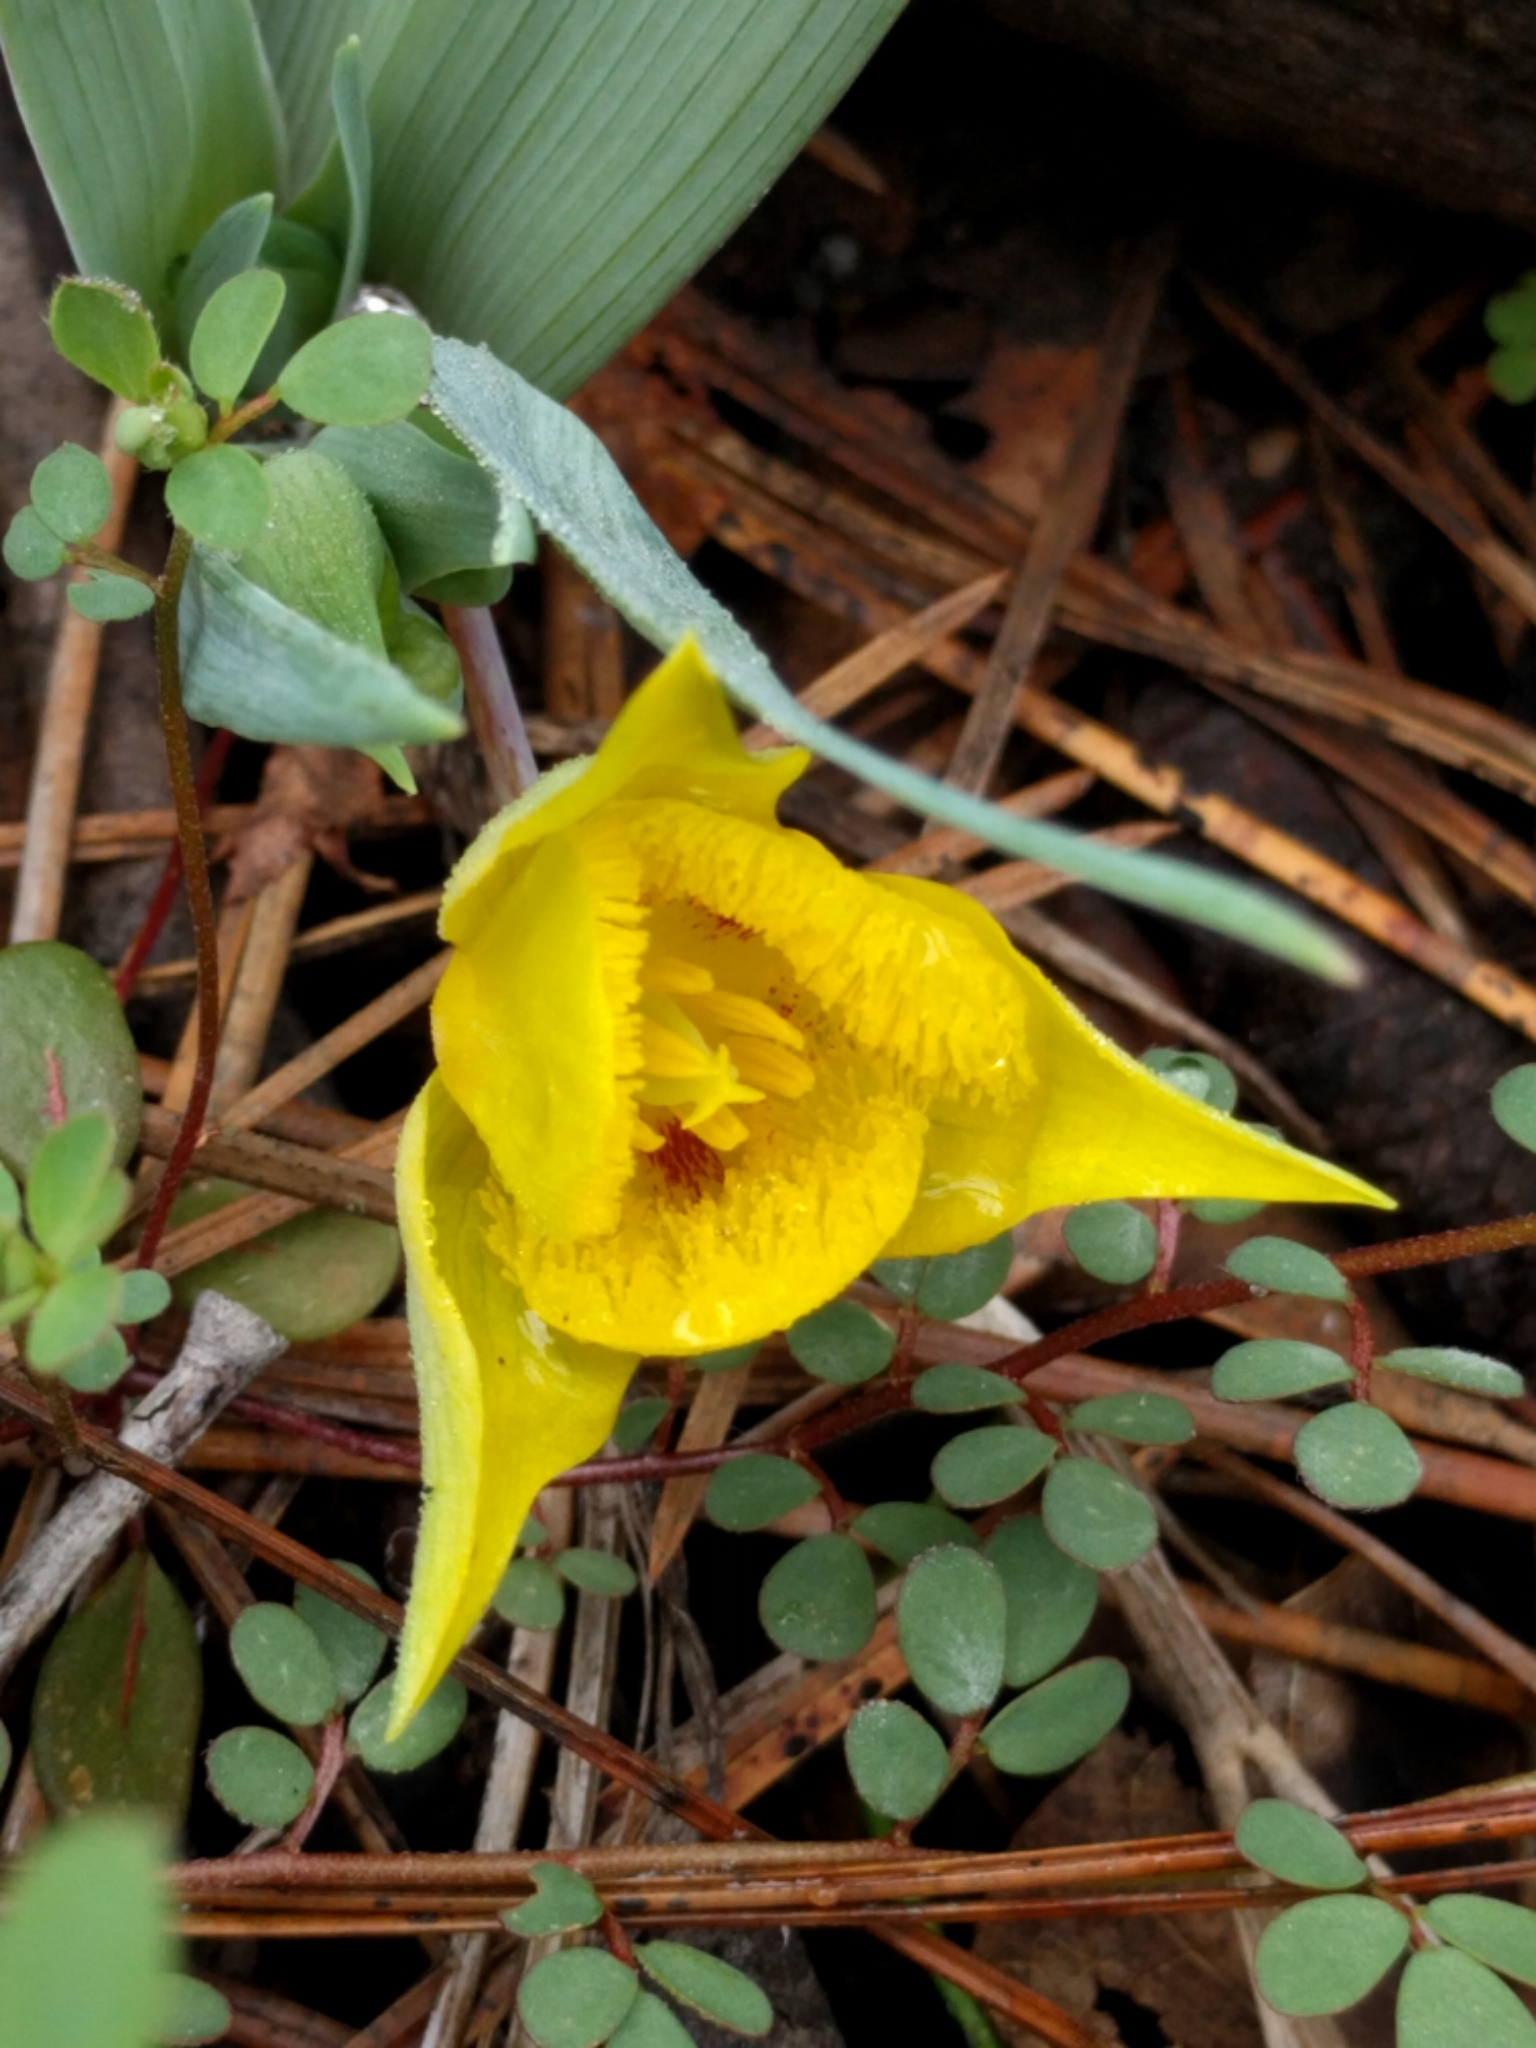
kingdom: Plantae
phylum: Tracheophyta
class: Liliopsida
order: Liliales
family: Liliaceae
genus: Calochortus
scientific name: Calochortus monophyllus
